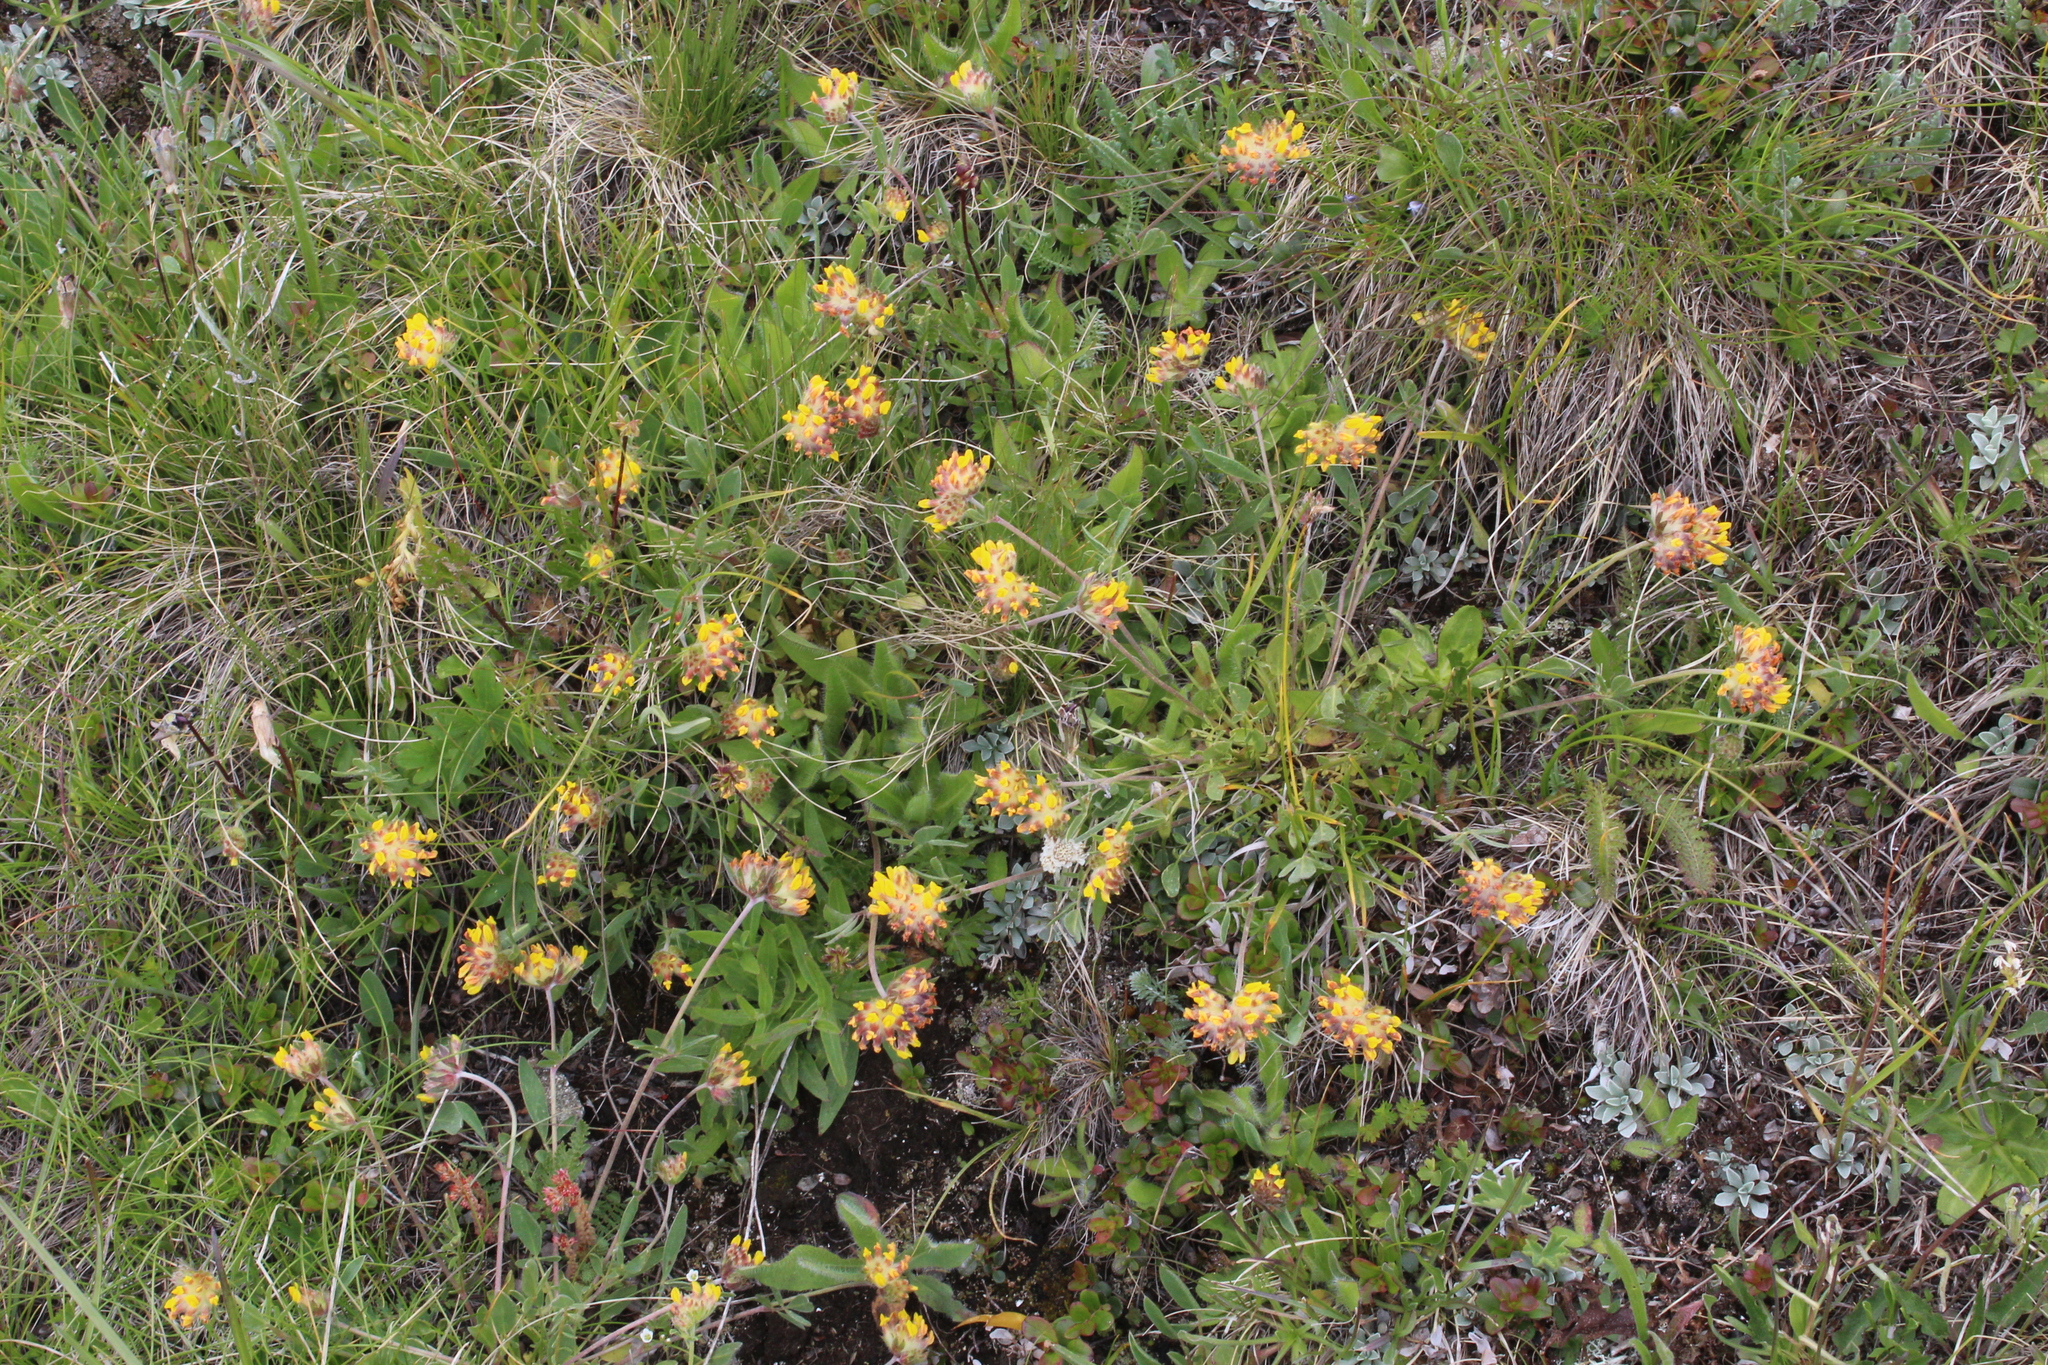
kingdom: Plantae
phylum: Tracheophyta
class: Magnoliopsida
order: Fabales
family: Fabaceae
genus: Anthyllis
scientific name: Anthyllis vulneraria
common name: Kidney vetch
